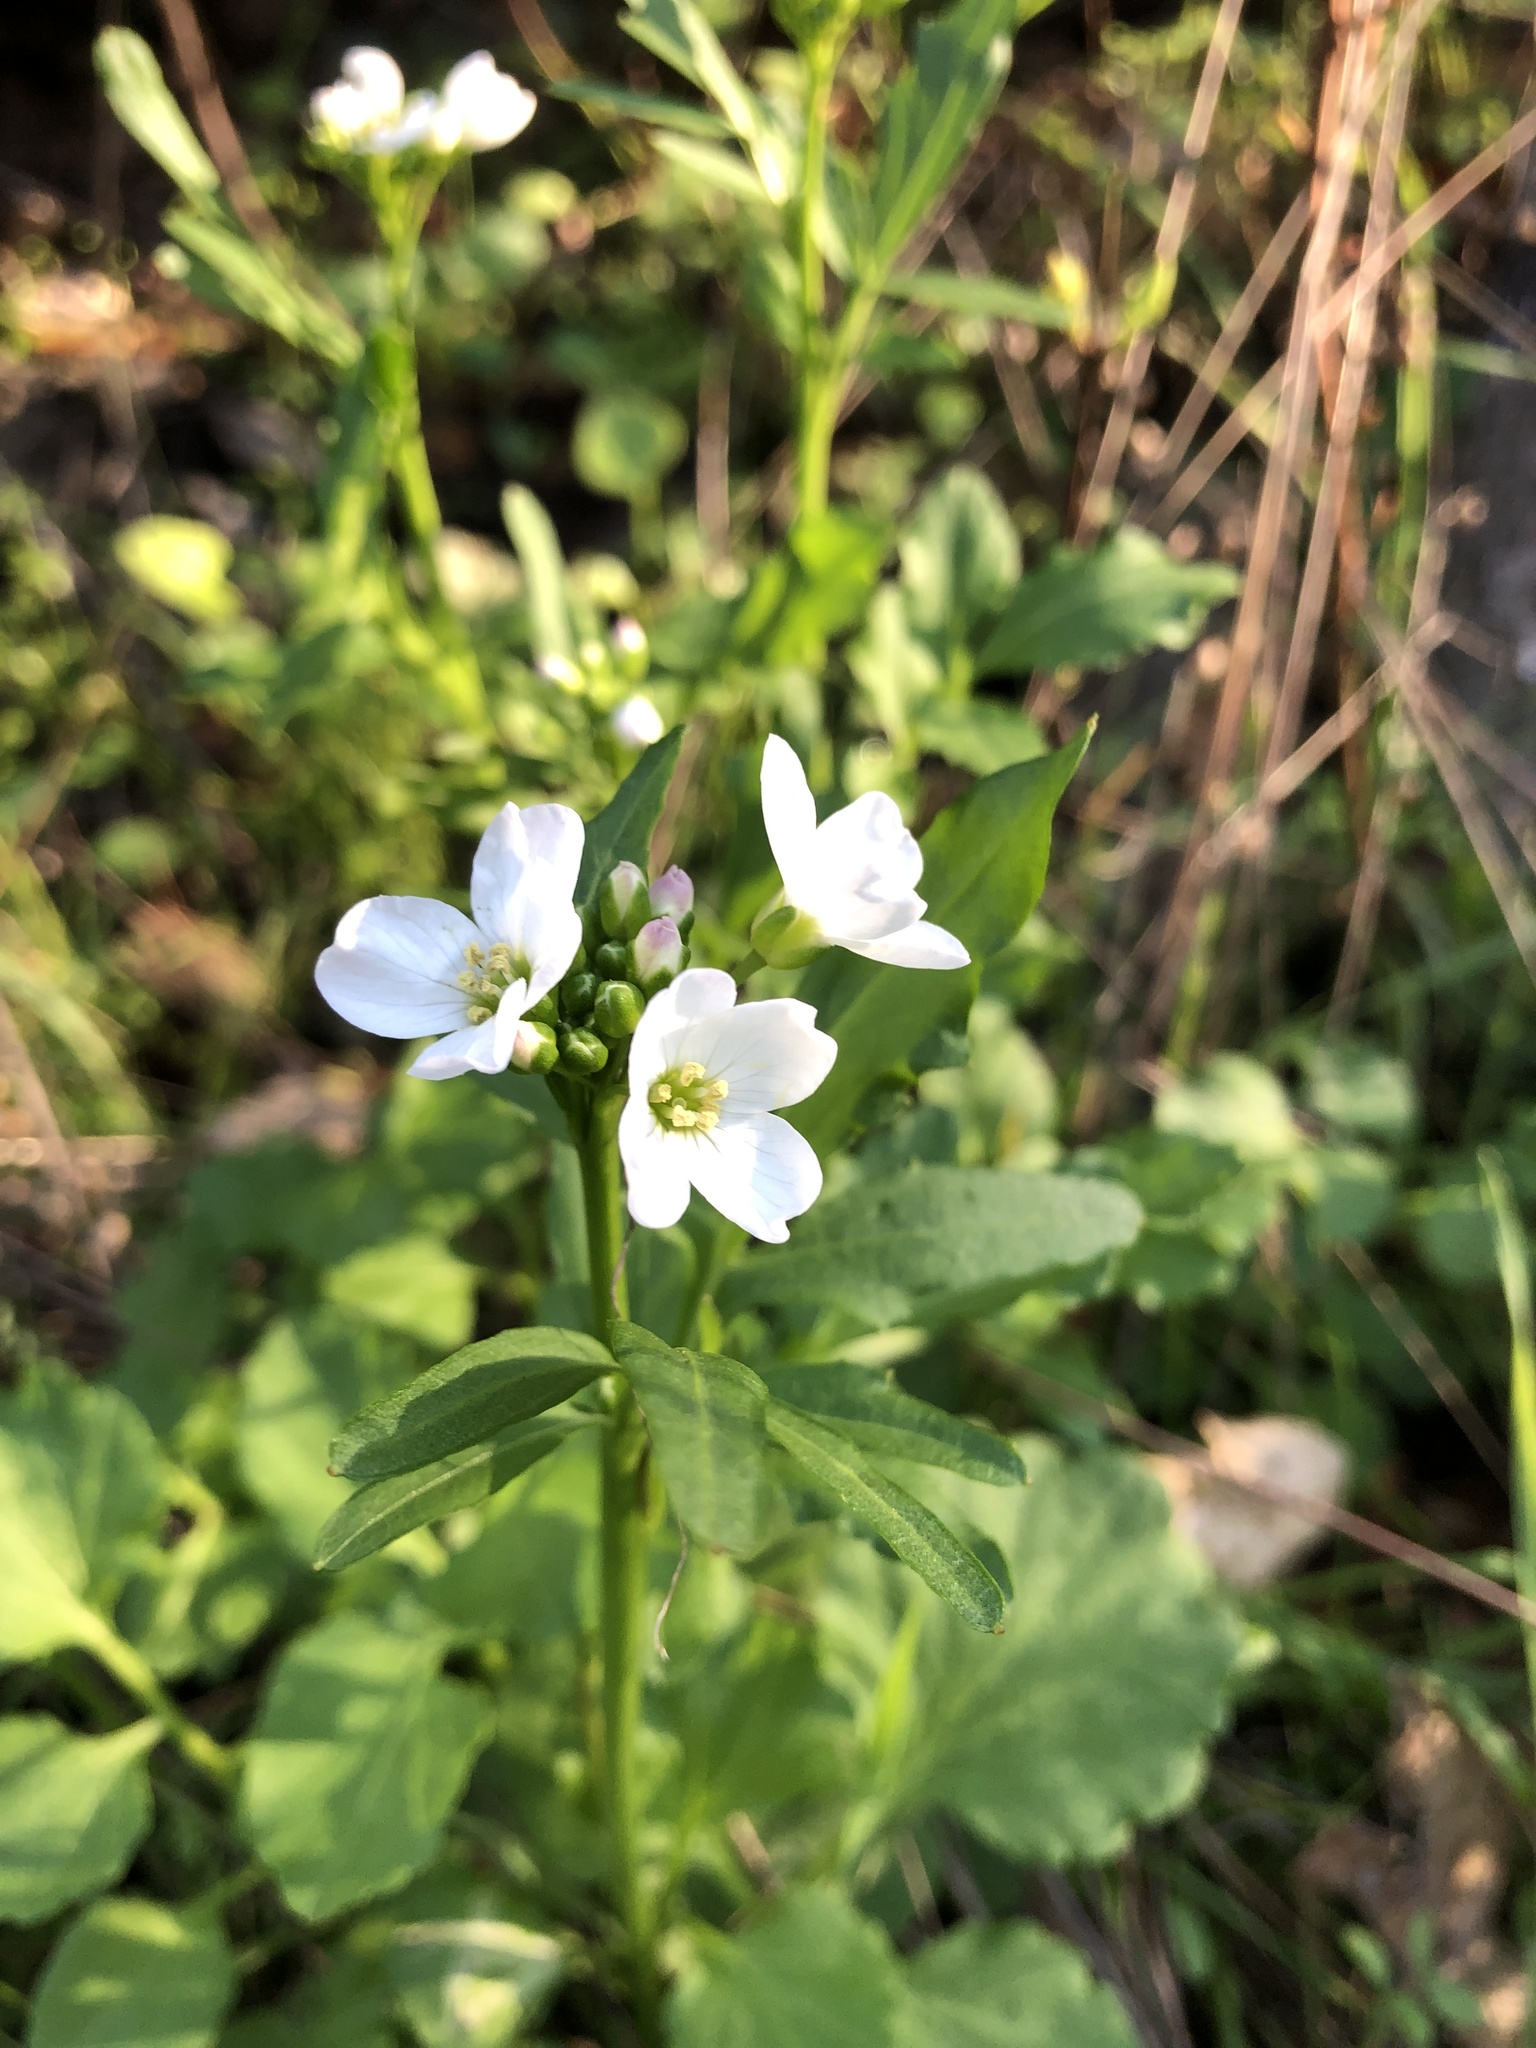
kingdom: Plantae
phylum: Tracheophyta
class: Magnoliopsida
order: Brassicales
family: Brassicaceae
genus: Cardamine
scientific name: Cardamine californica
